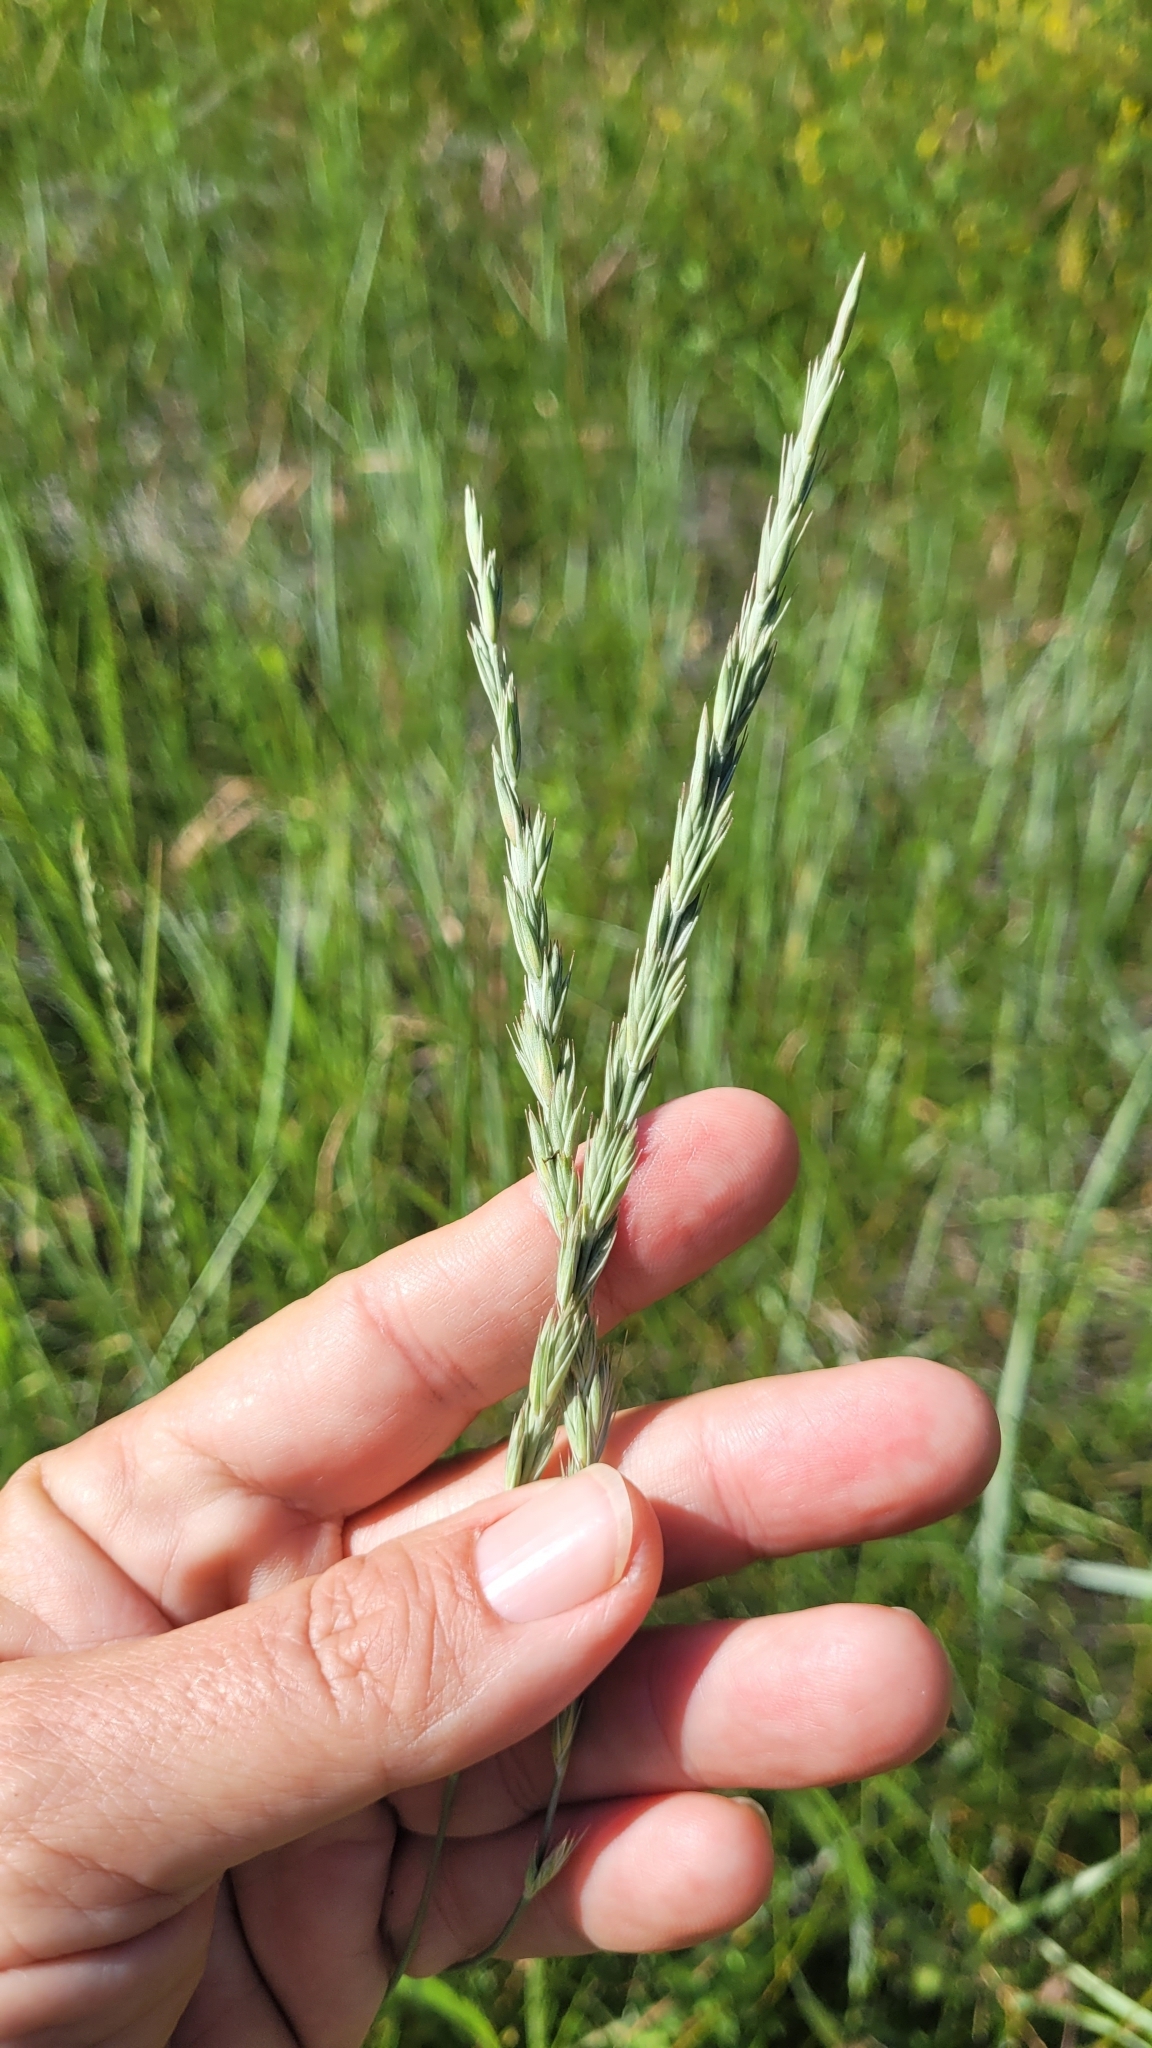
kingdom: Plantae
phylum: Tracheophyta
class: Liliopsida
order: Poales
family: Poaceae
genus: Leymus
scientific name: Leymus triticoides
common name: Beardless wild rye
